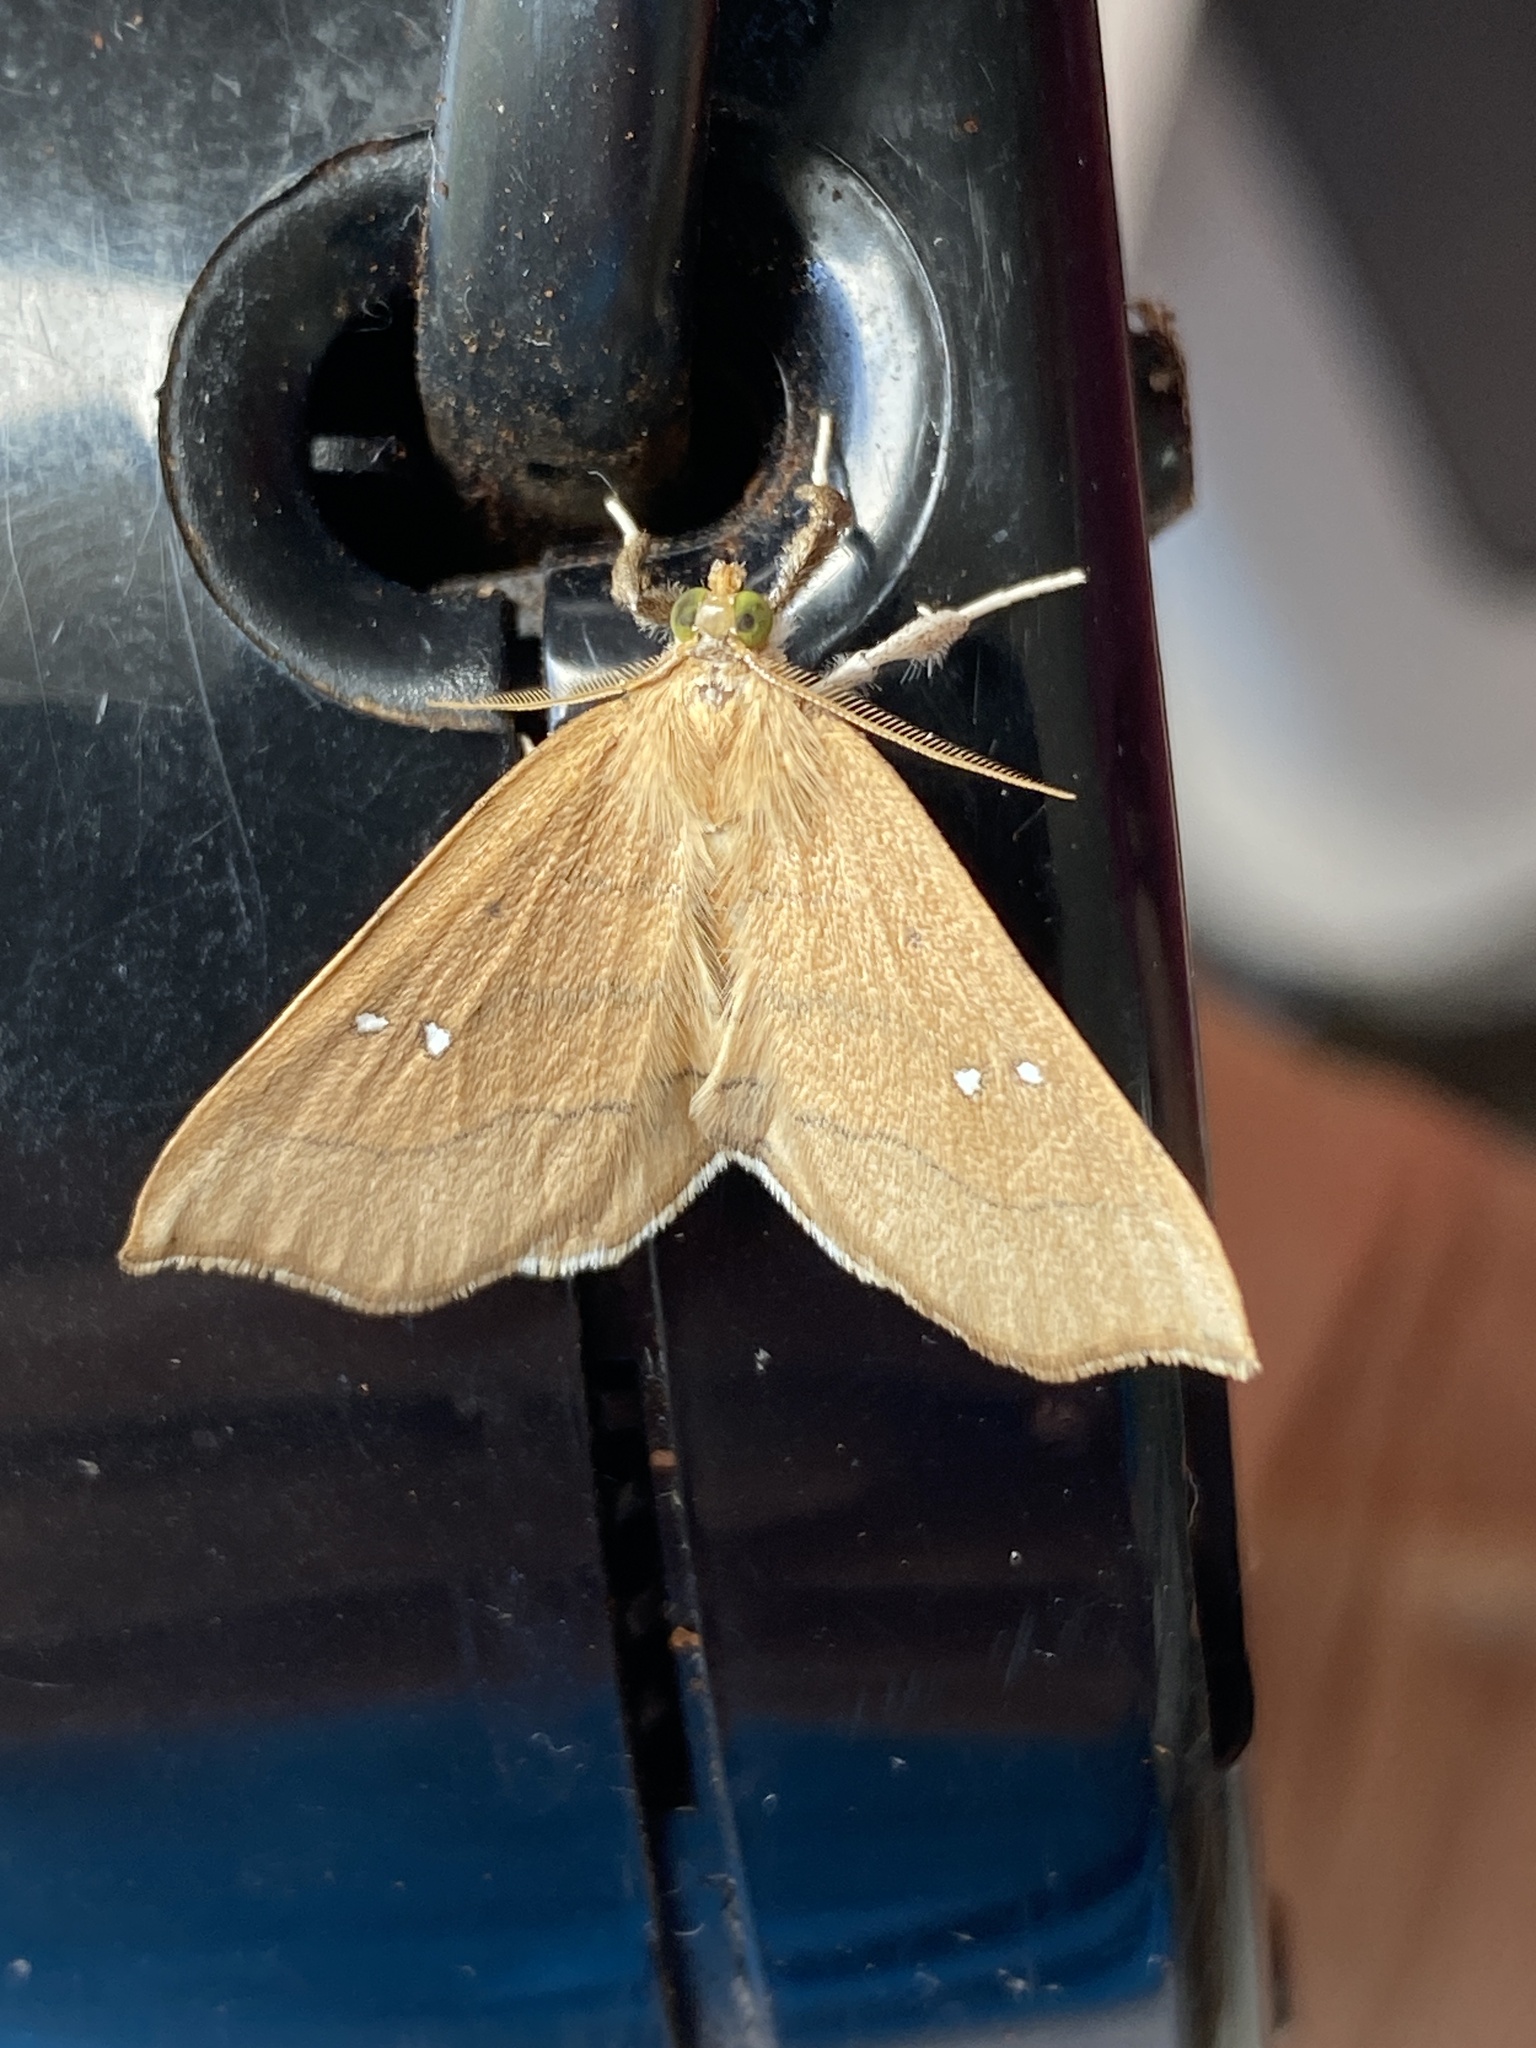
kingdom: Animalia
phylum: Arthropoda
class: Insecta
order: Lepidoptera
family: Erebidae
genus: Disticta
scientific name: Disticta atava
